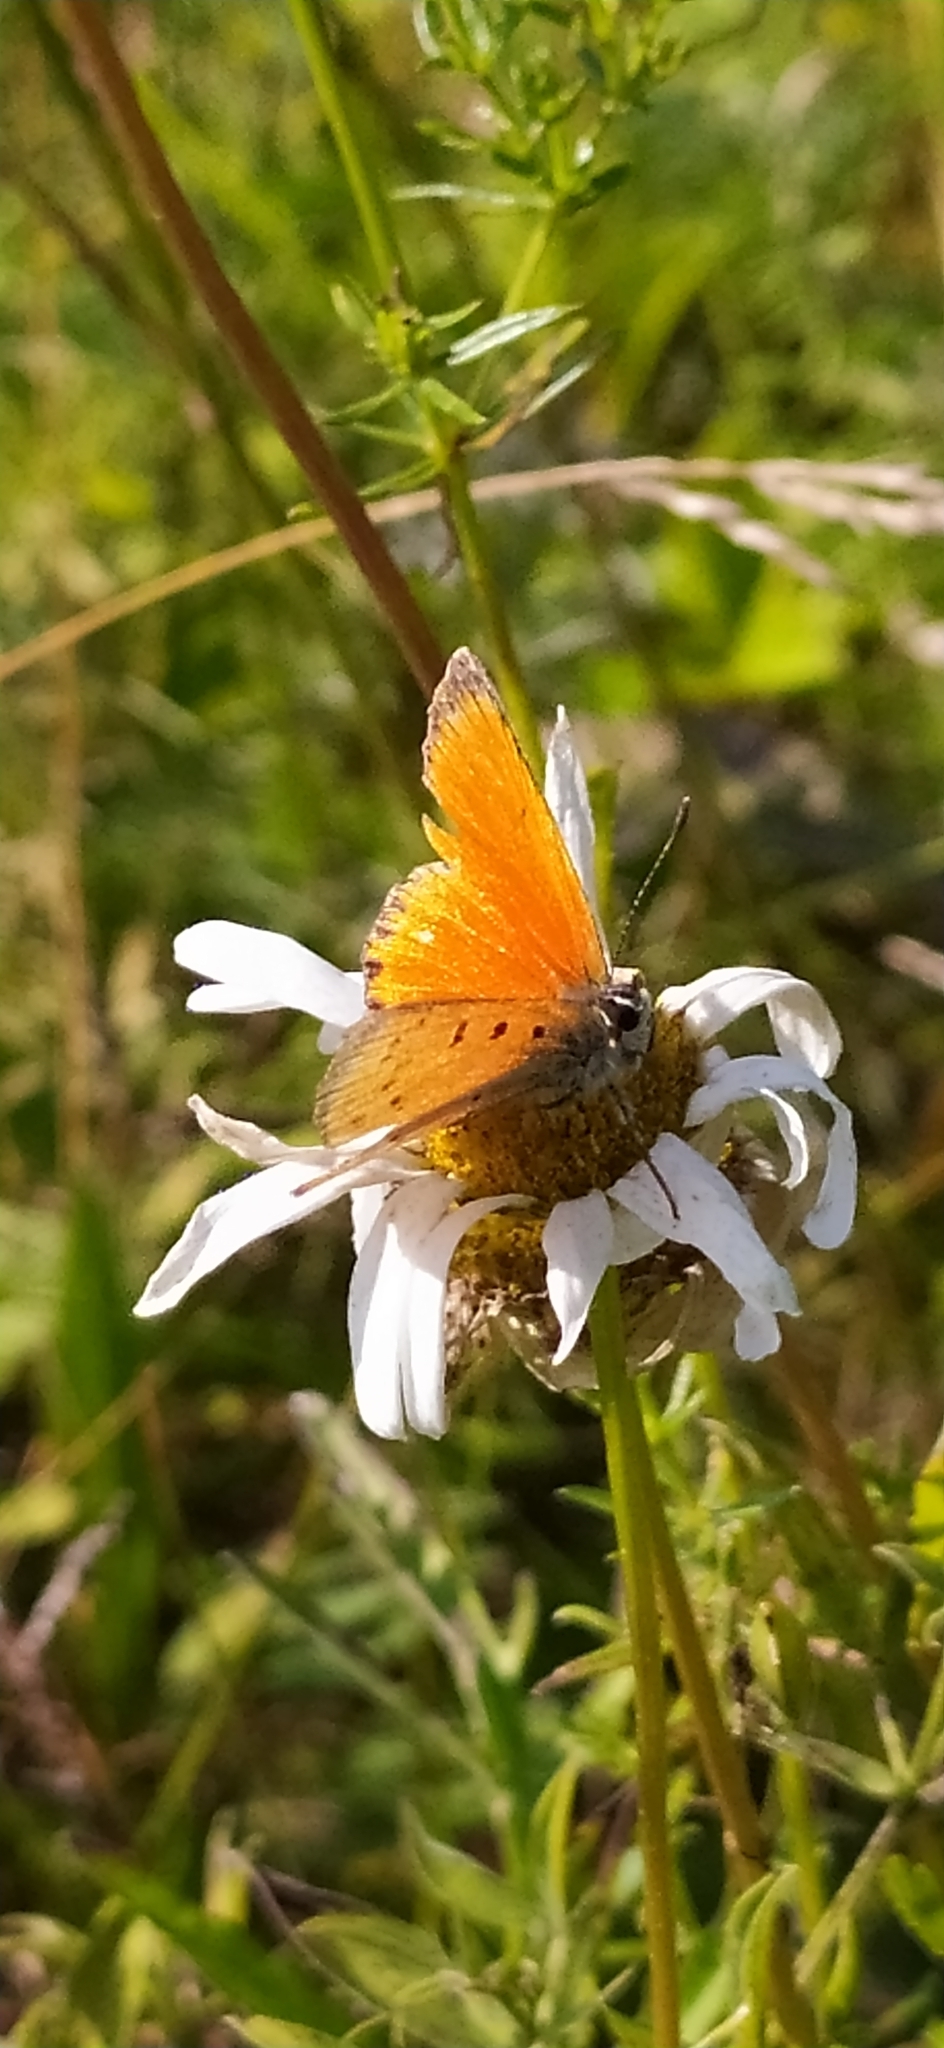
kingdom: Animalia
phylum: Arthropoda
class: Insecta
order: Lepidoptera
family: Lycaenidae
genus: Lycaena
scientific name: Lycaena virgaureae
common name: Scarce copper
